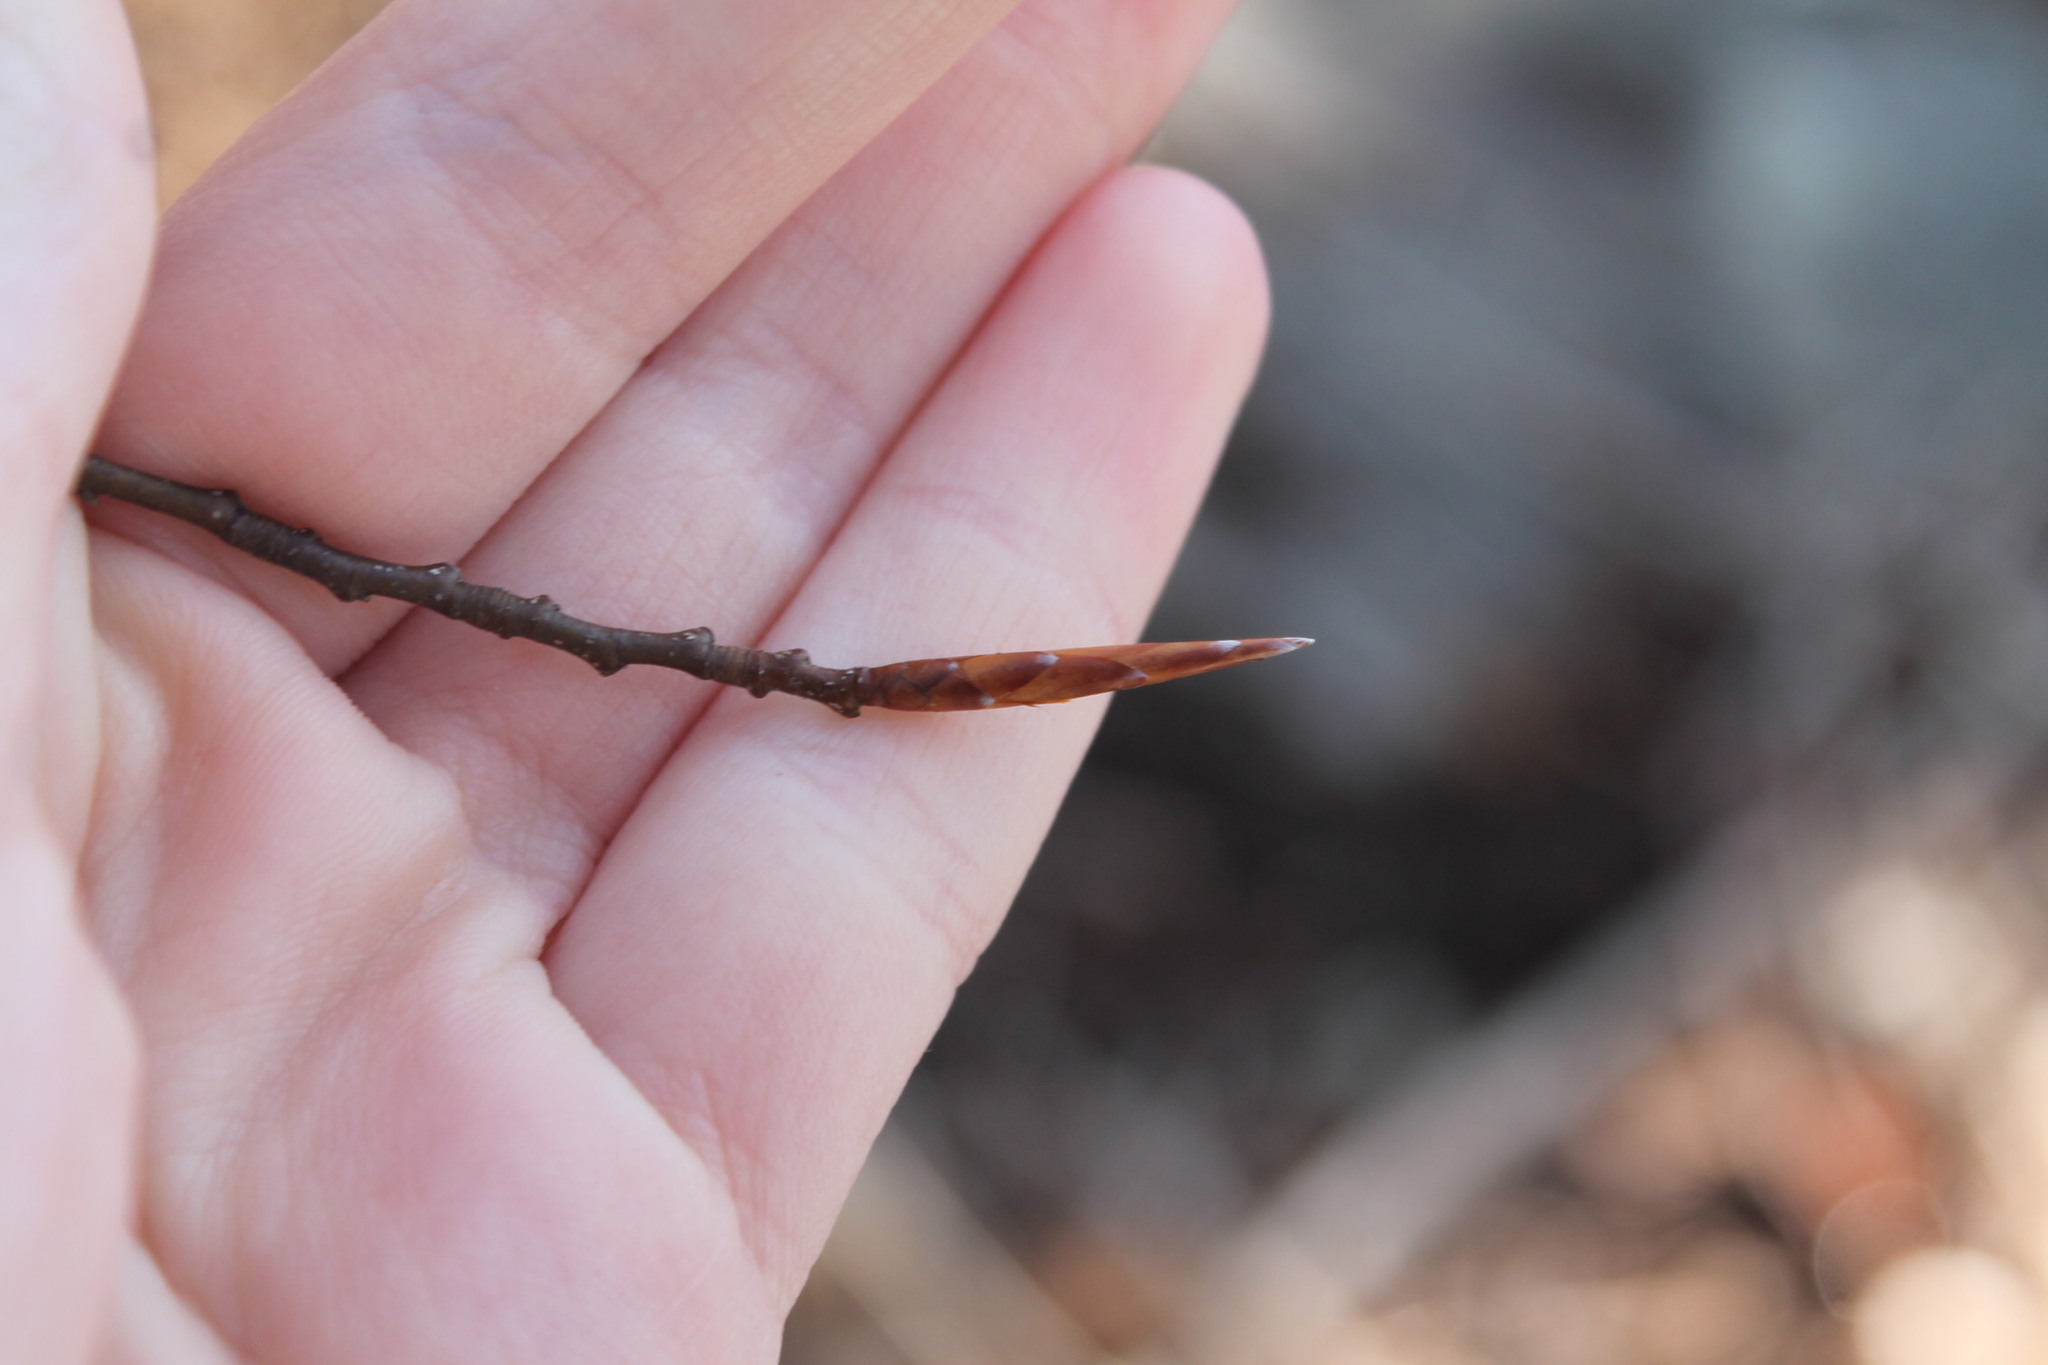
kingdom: Plantae
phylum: Tracheophyta
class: Magnoliopsida
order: Fagales
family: Fagaceae
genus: Fagus
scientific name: Fagus grandifolia
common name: American beech
